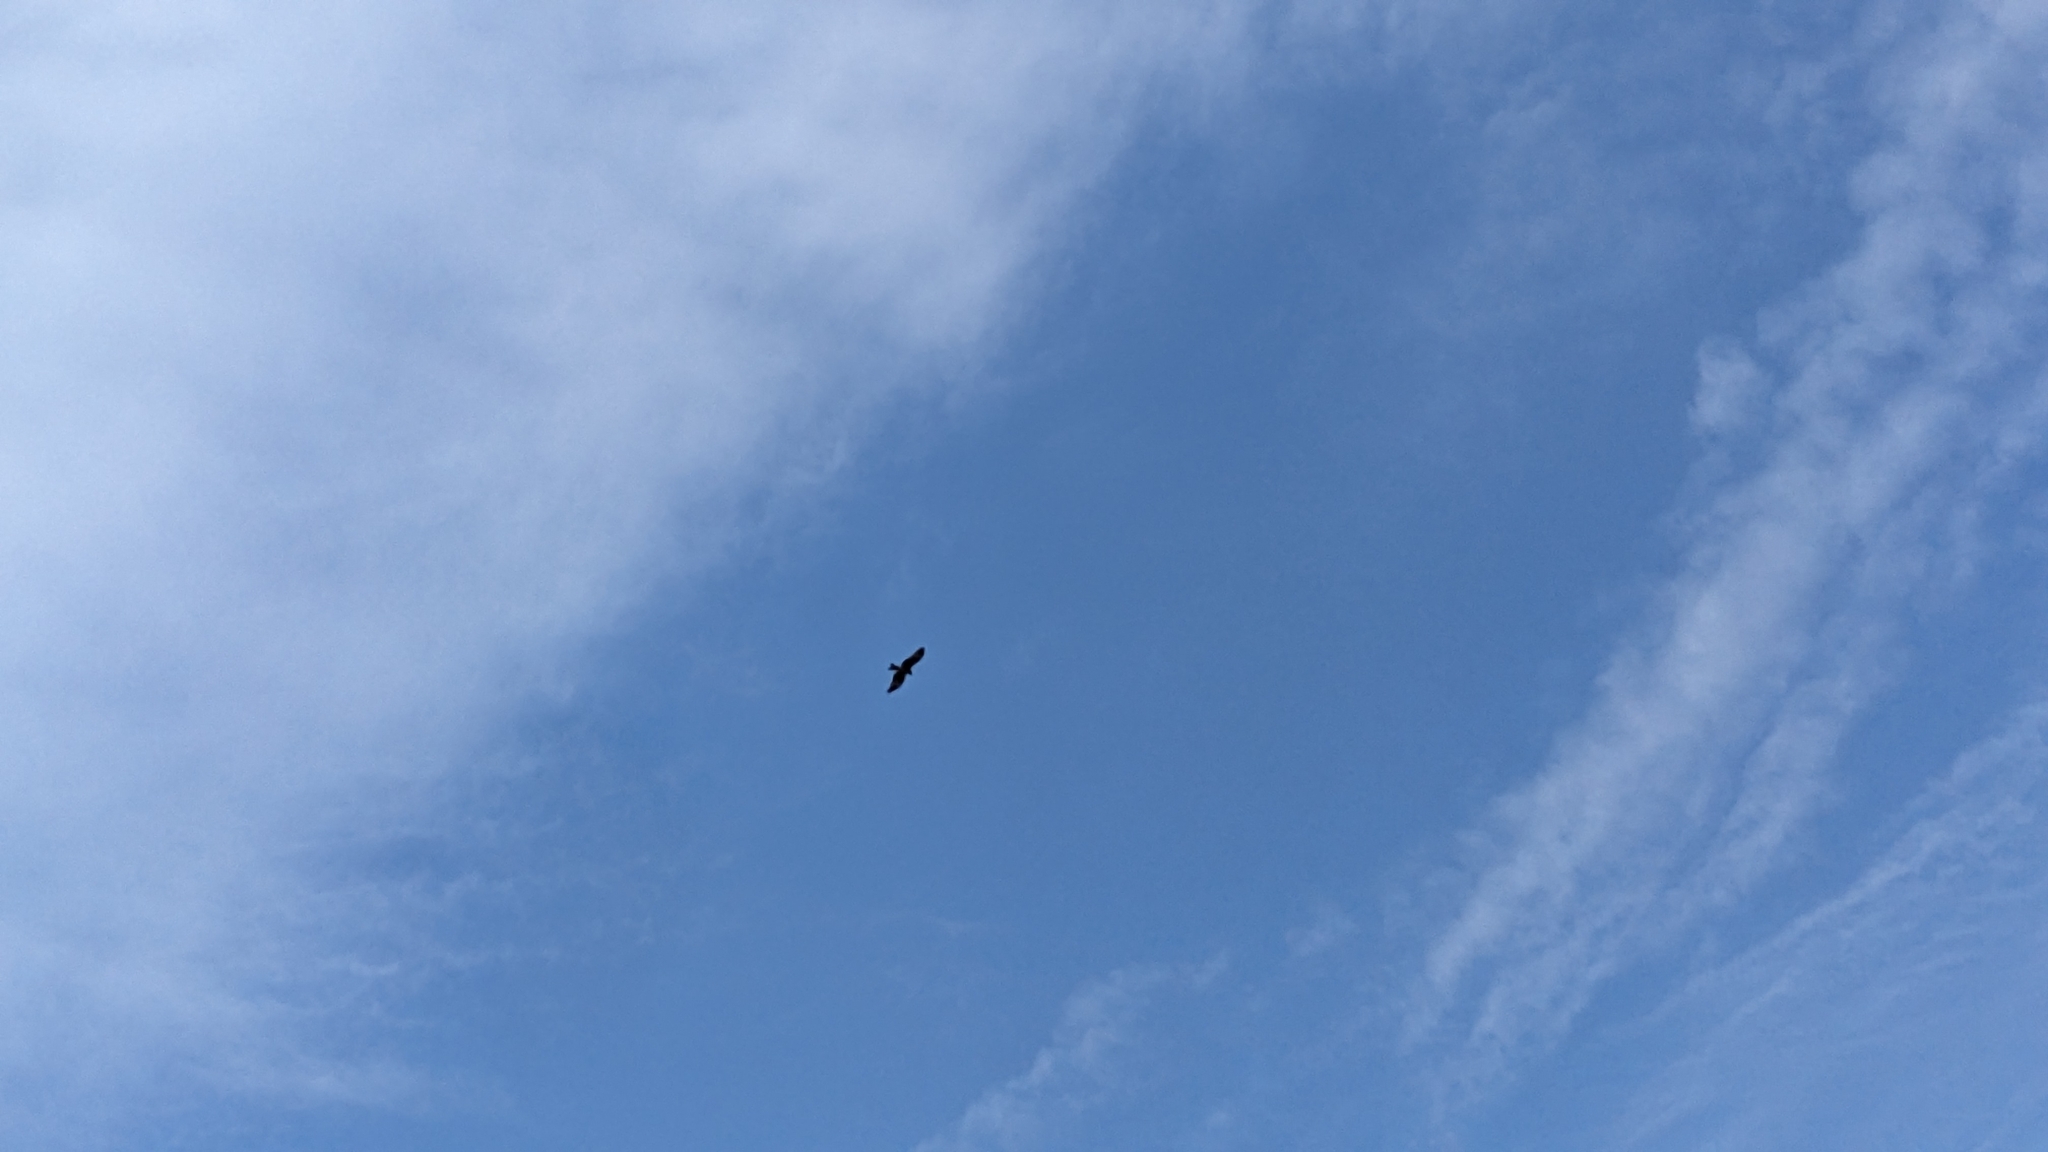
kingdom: Animalia
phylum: Chordata
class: Aves
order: Accipitriformes
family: Accipitridae
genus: Milvus
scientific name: Milvus migrans
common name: Black kite
